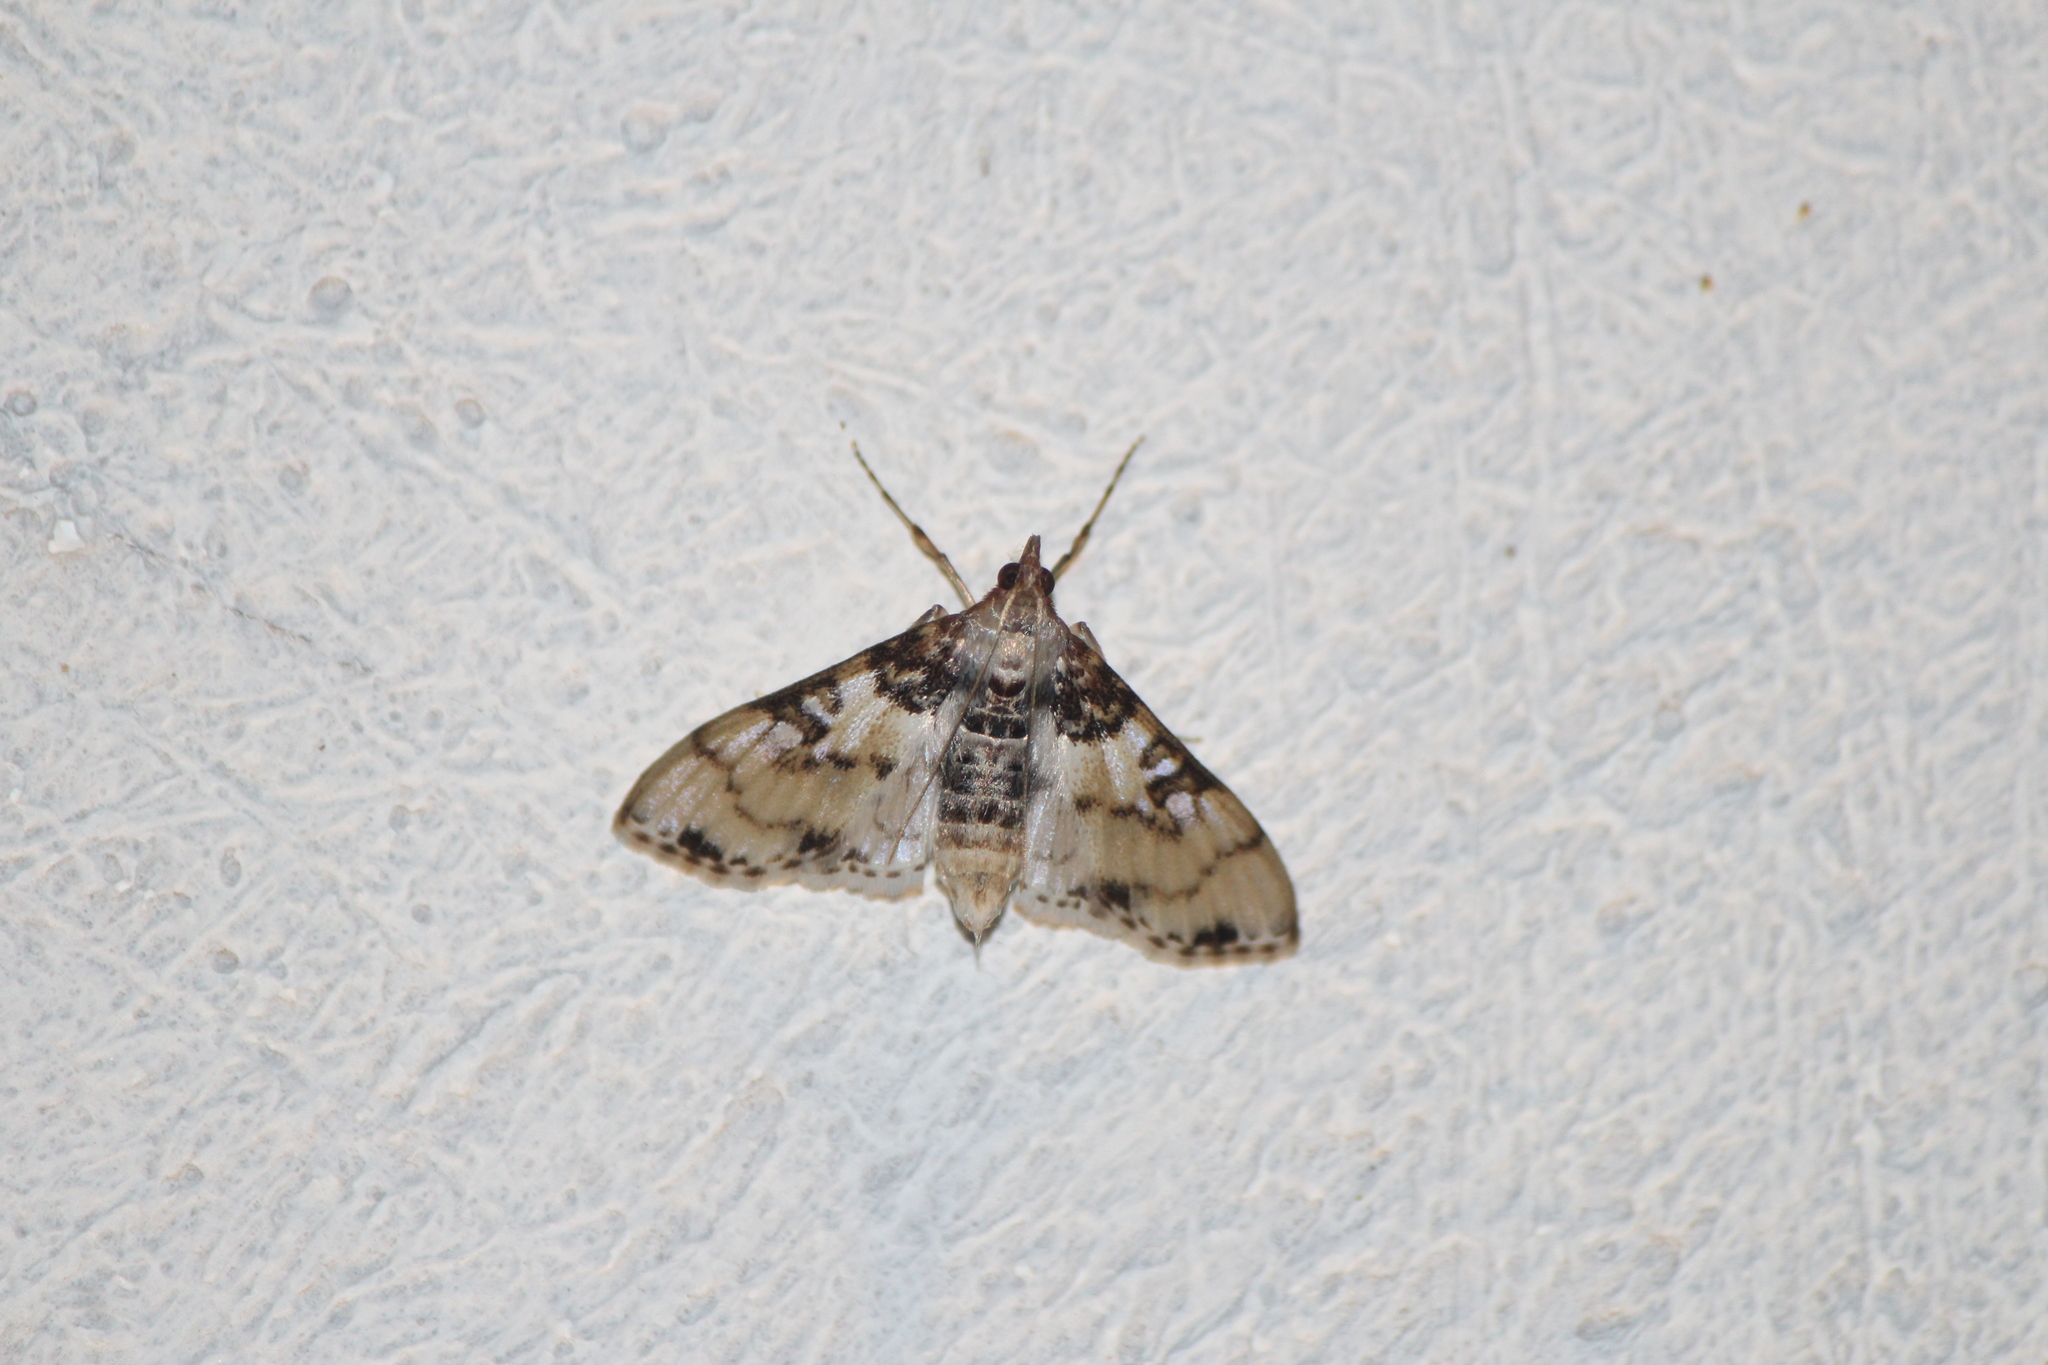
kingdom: Animalia
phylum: Arthropoda
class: Insecta
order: Lepidoptera
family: Crambidae
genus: Azochis
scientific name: Azochis rufidiscalis
